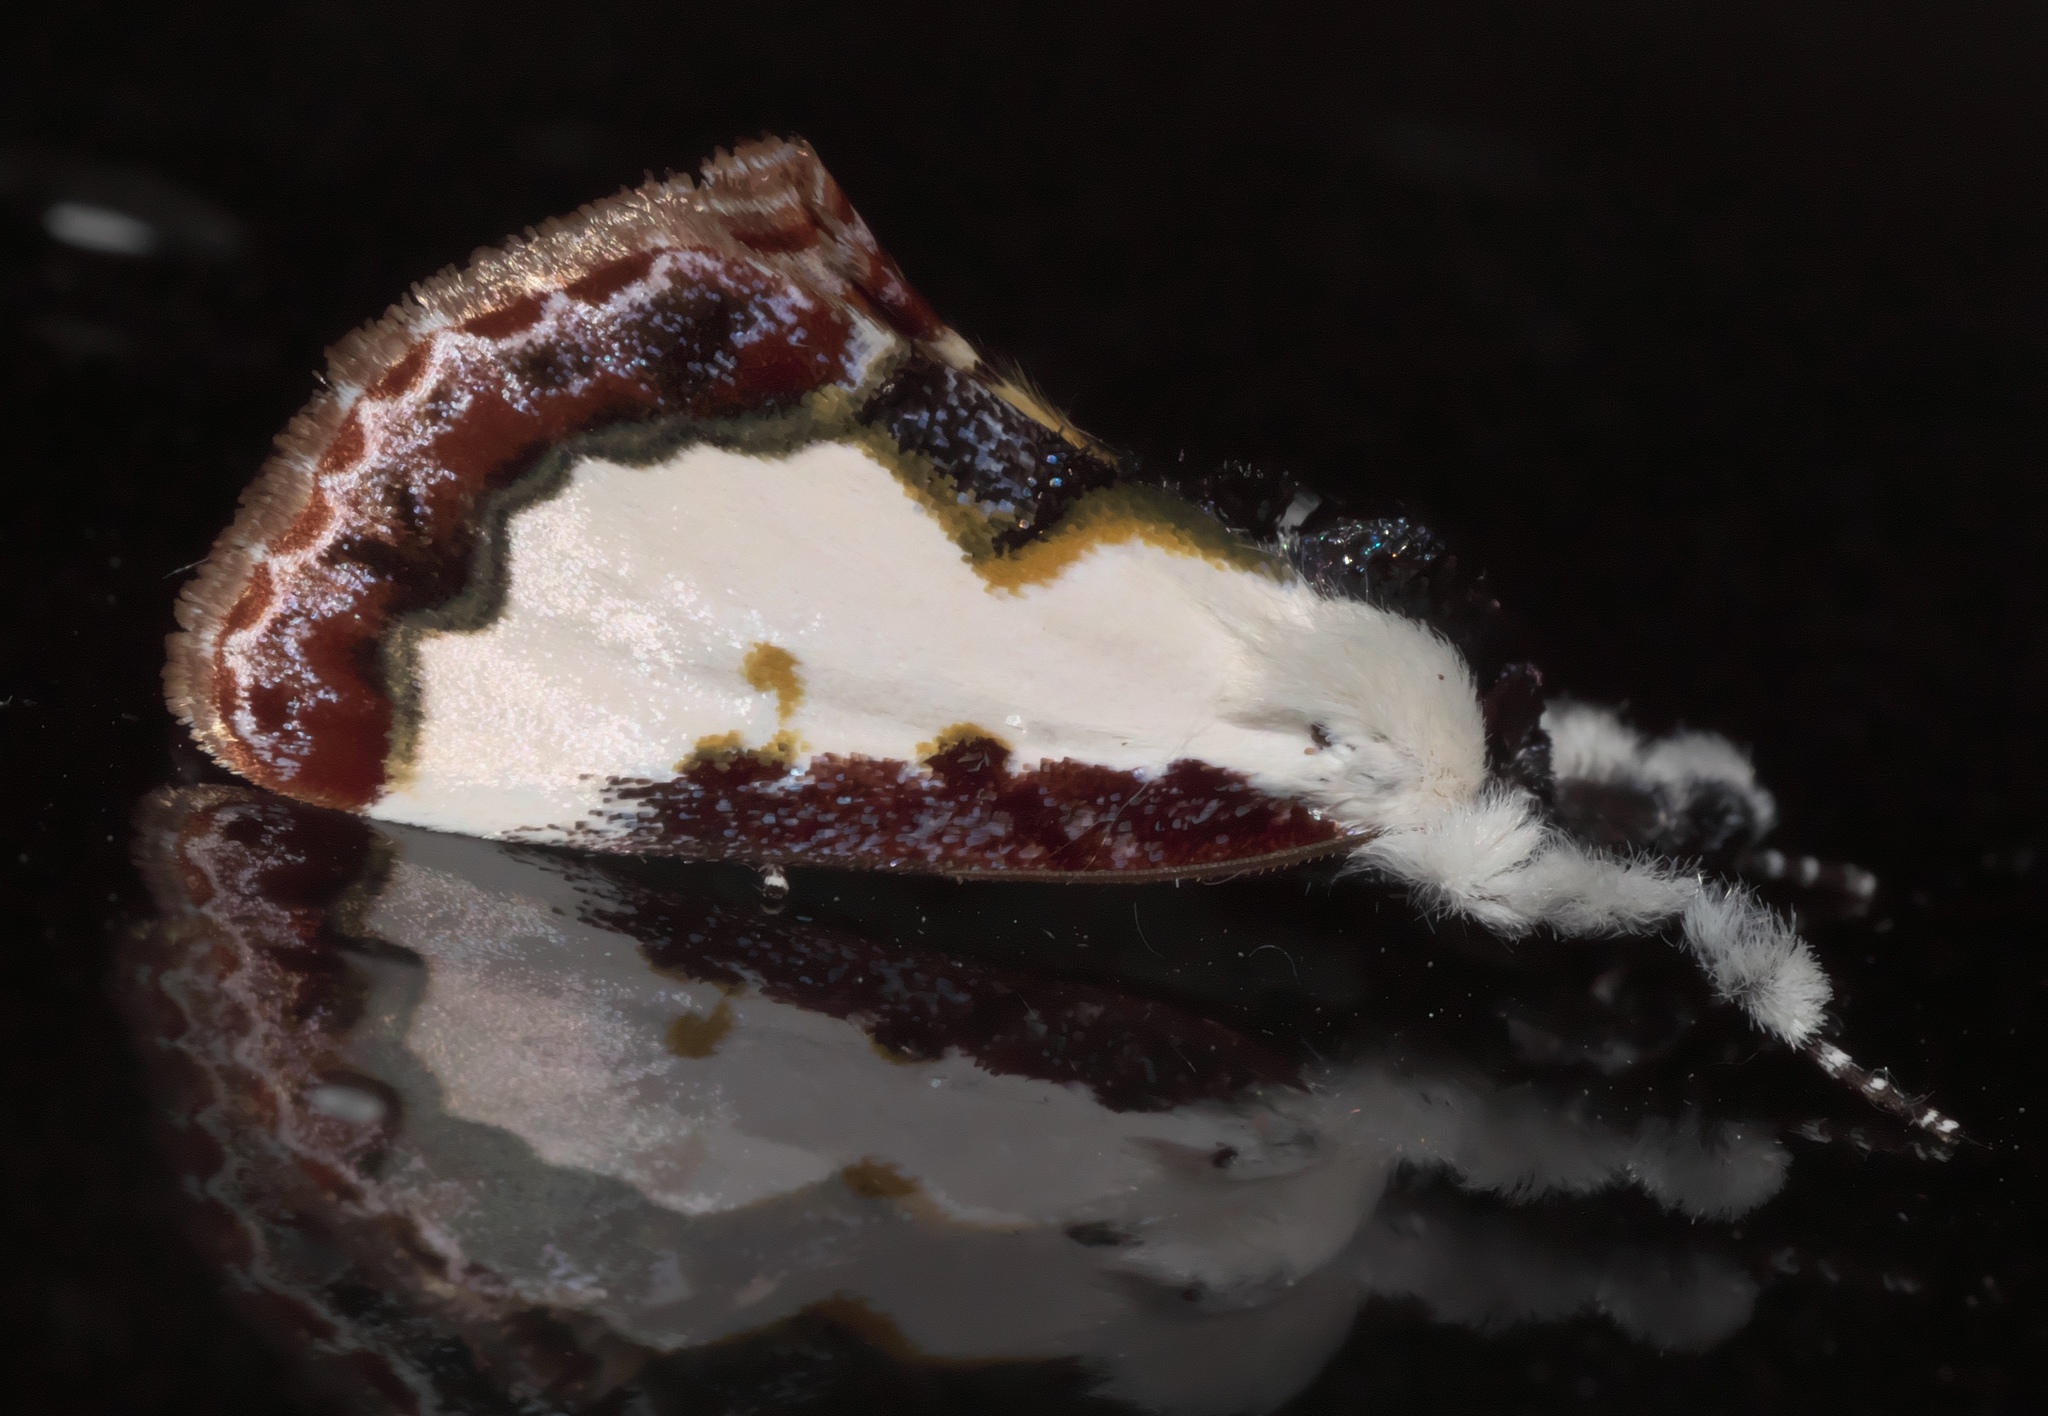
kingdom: Animalia
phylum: Arthropoda
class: Insecta
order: Lepidoptera
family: Noctuidae
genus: Eudryas
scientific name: Eudryas unio
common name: Pearly wood-nymph
